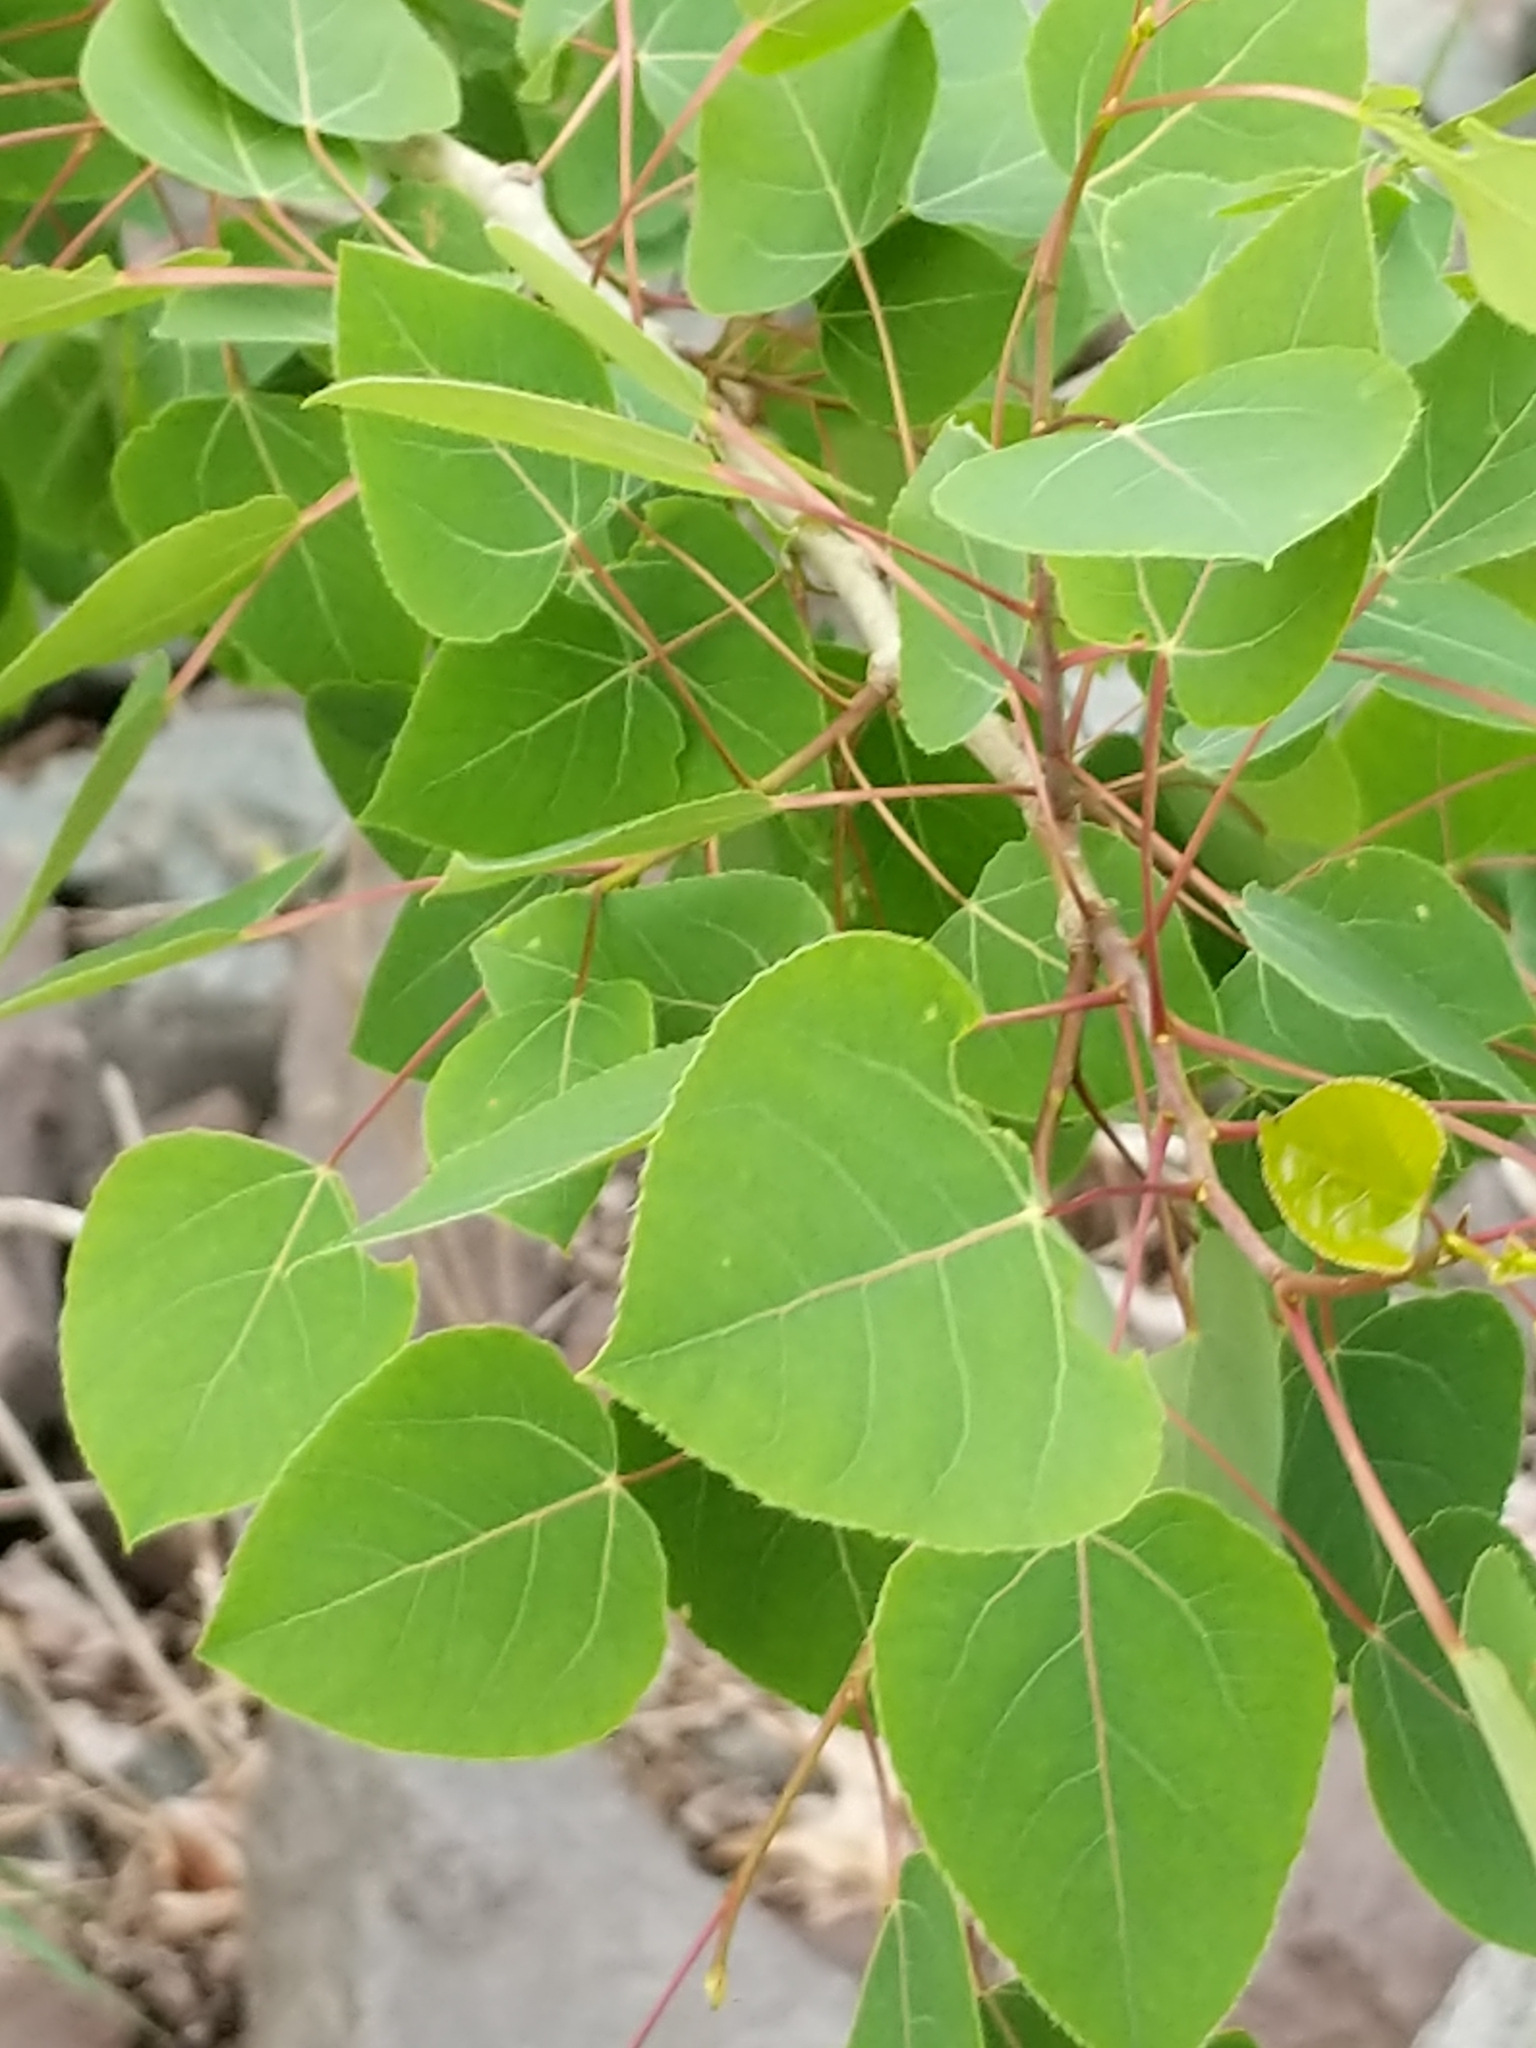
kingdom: Plantae
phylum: Tracheophyta
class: Magnoliopsida
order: Malpighiales
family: Salicaceae
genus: Populus
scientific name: Populus tremuloides
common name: Quaking aspen
